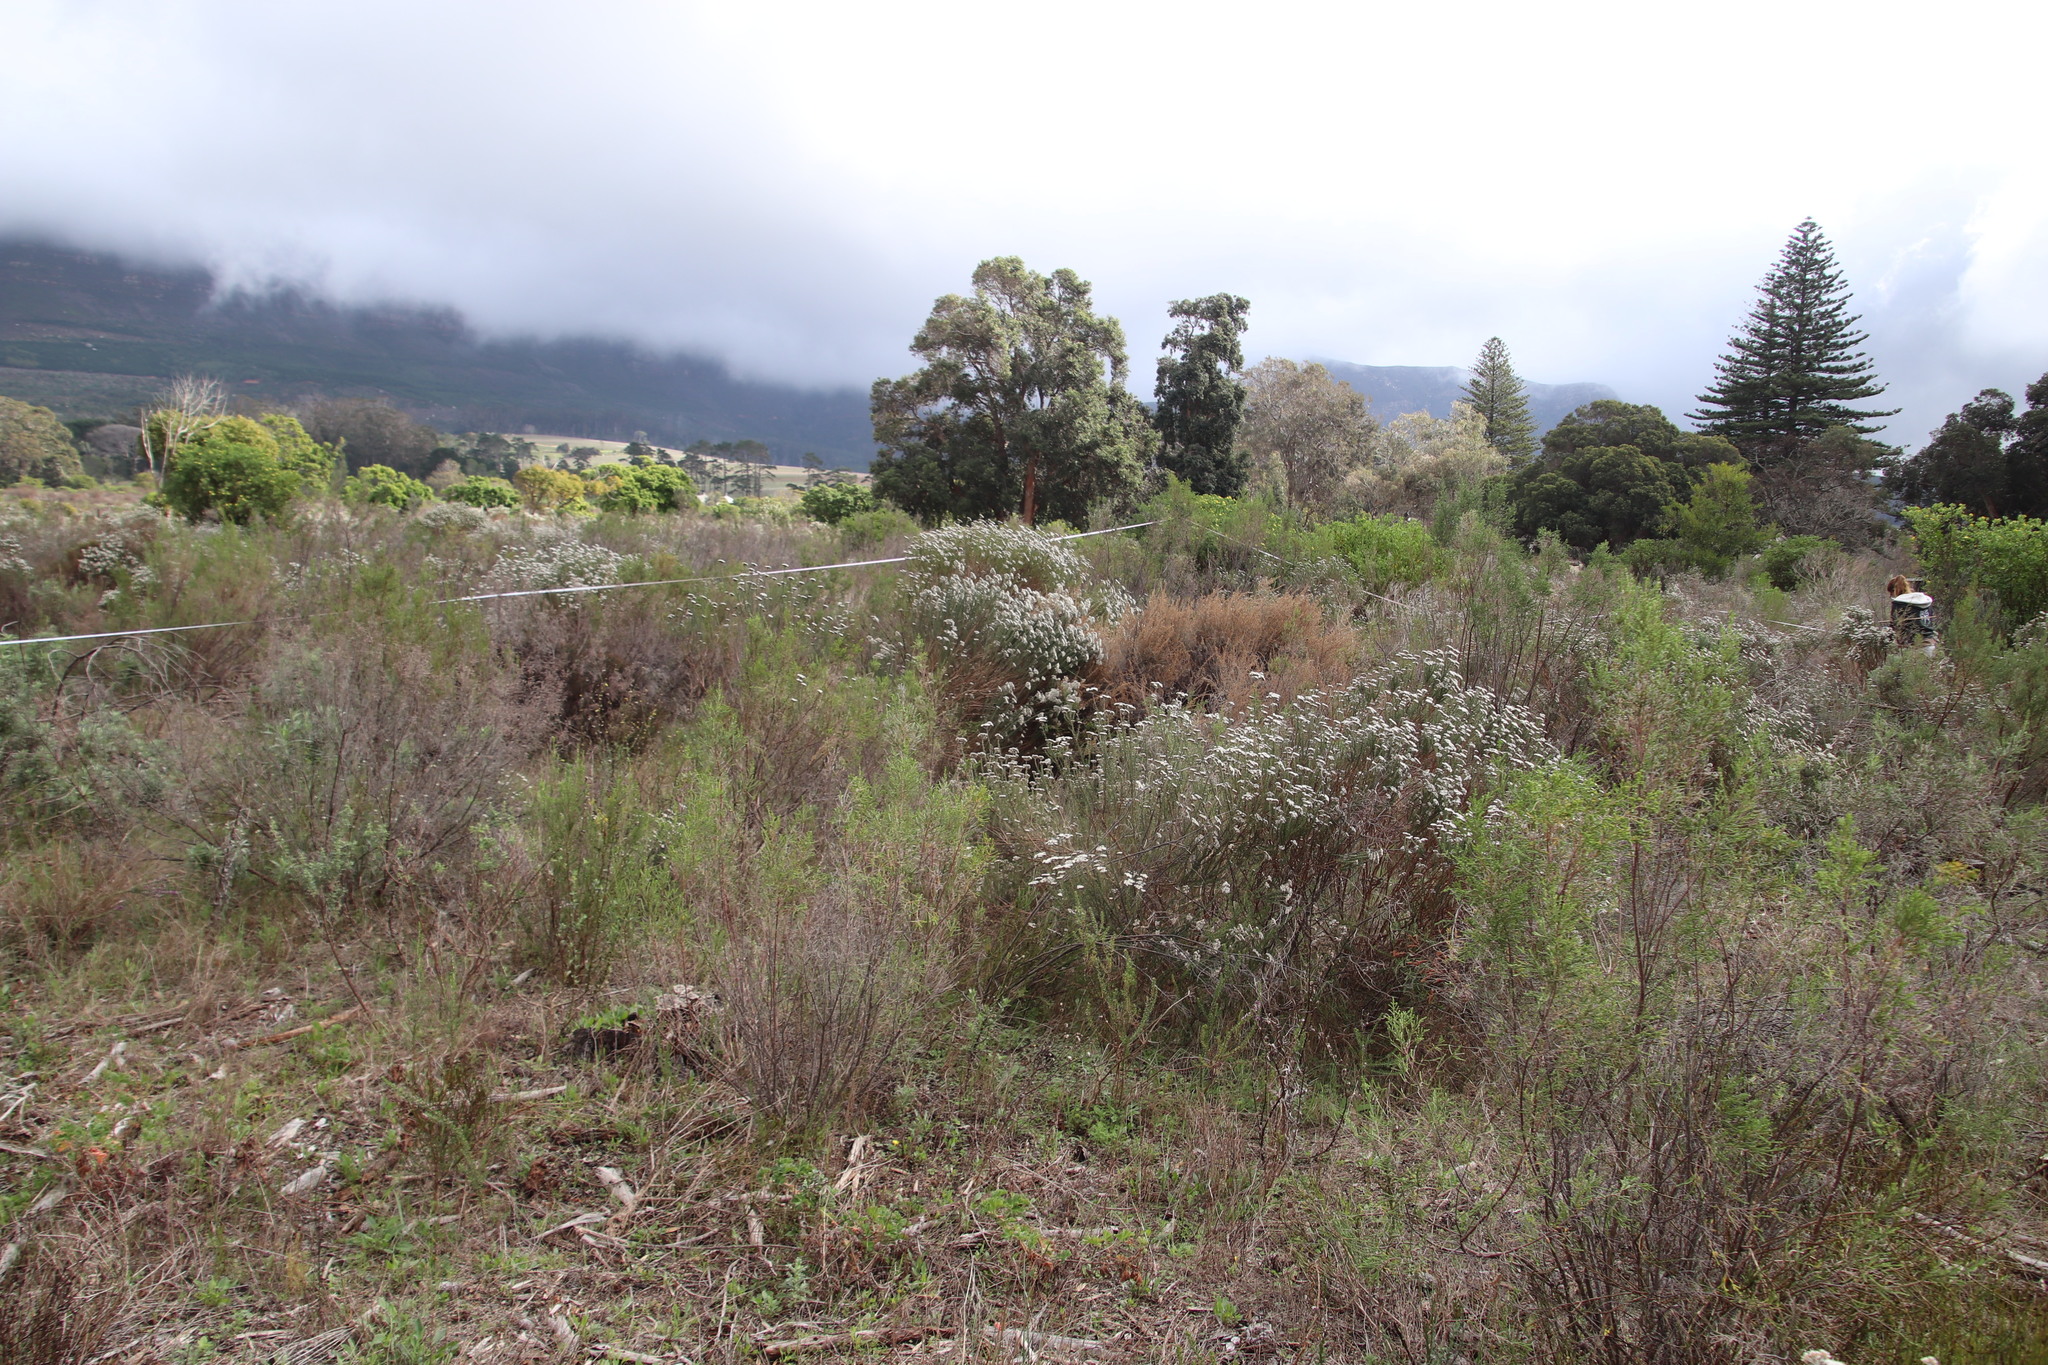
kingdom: Plantae
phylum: Tracheophyta
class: Magnoliopsida
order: Asterales
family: Asteraceae
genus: Seriphium
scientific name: Seriphium plumosum
